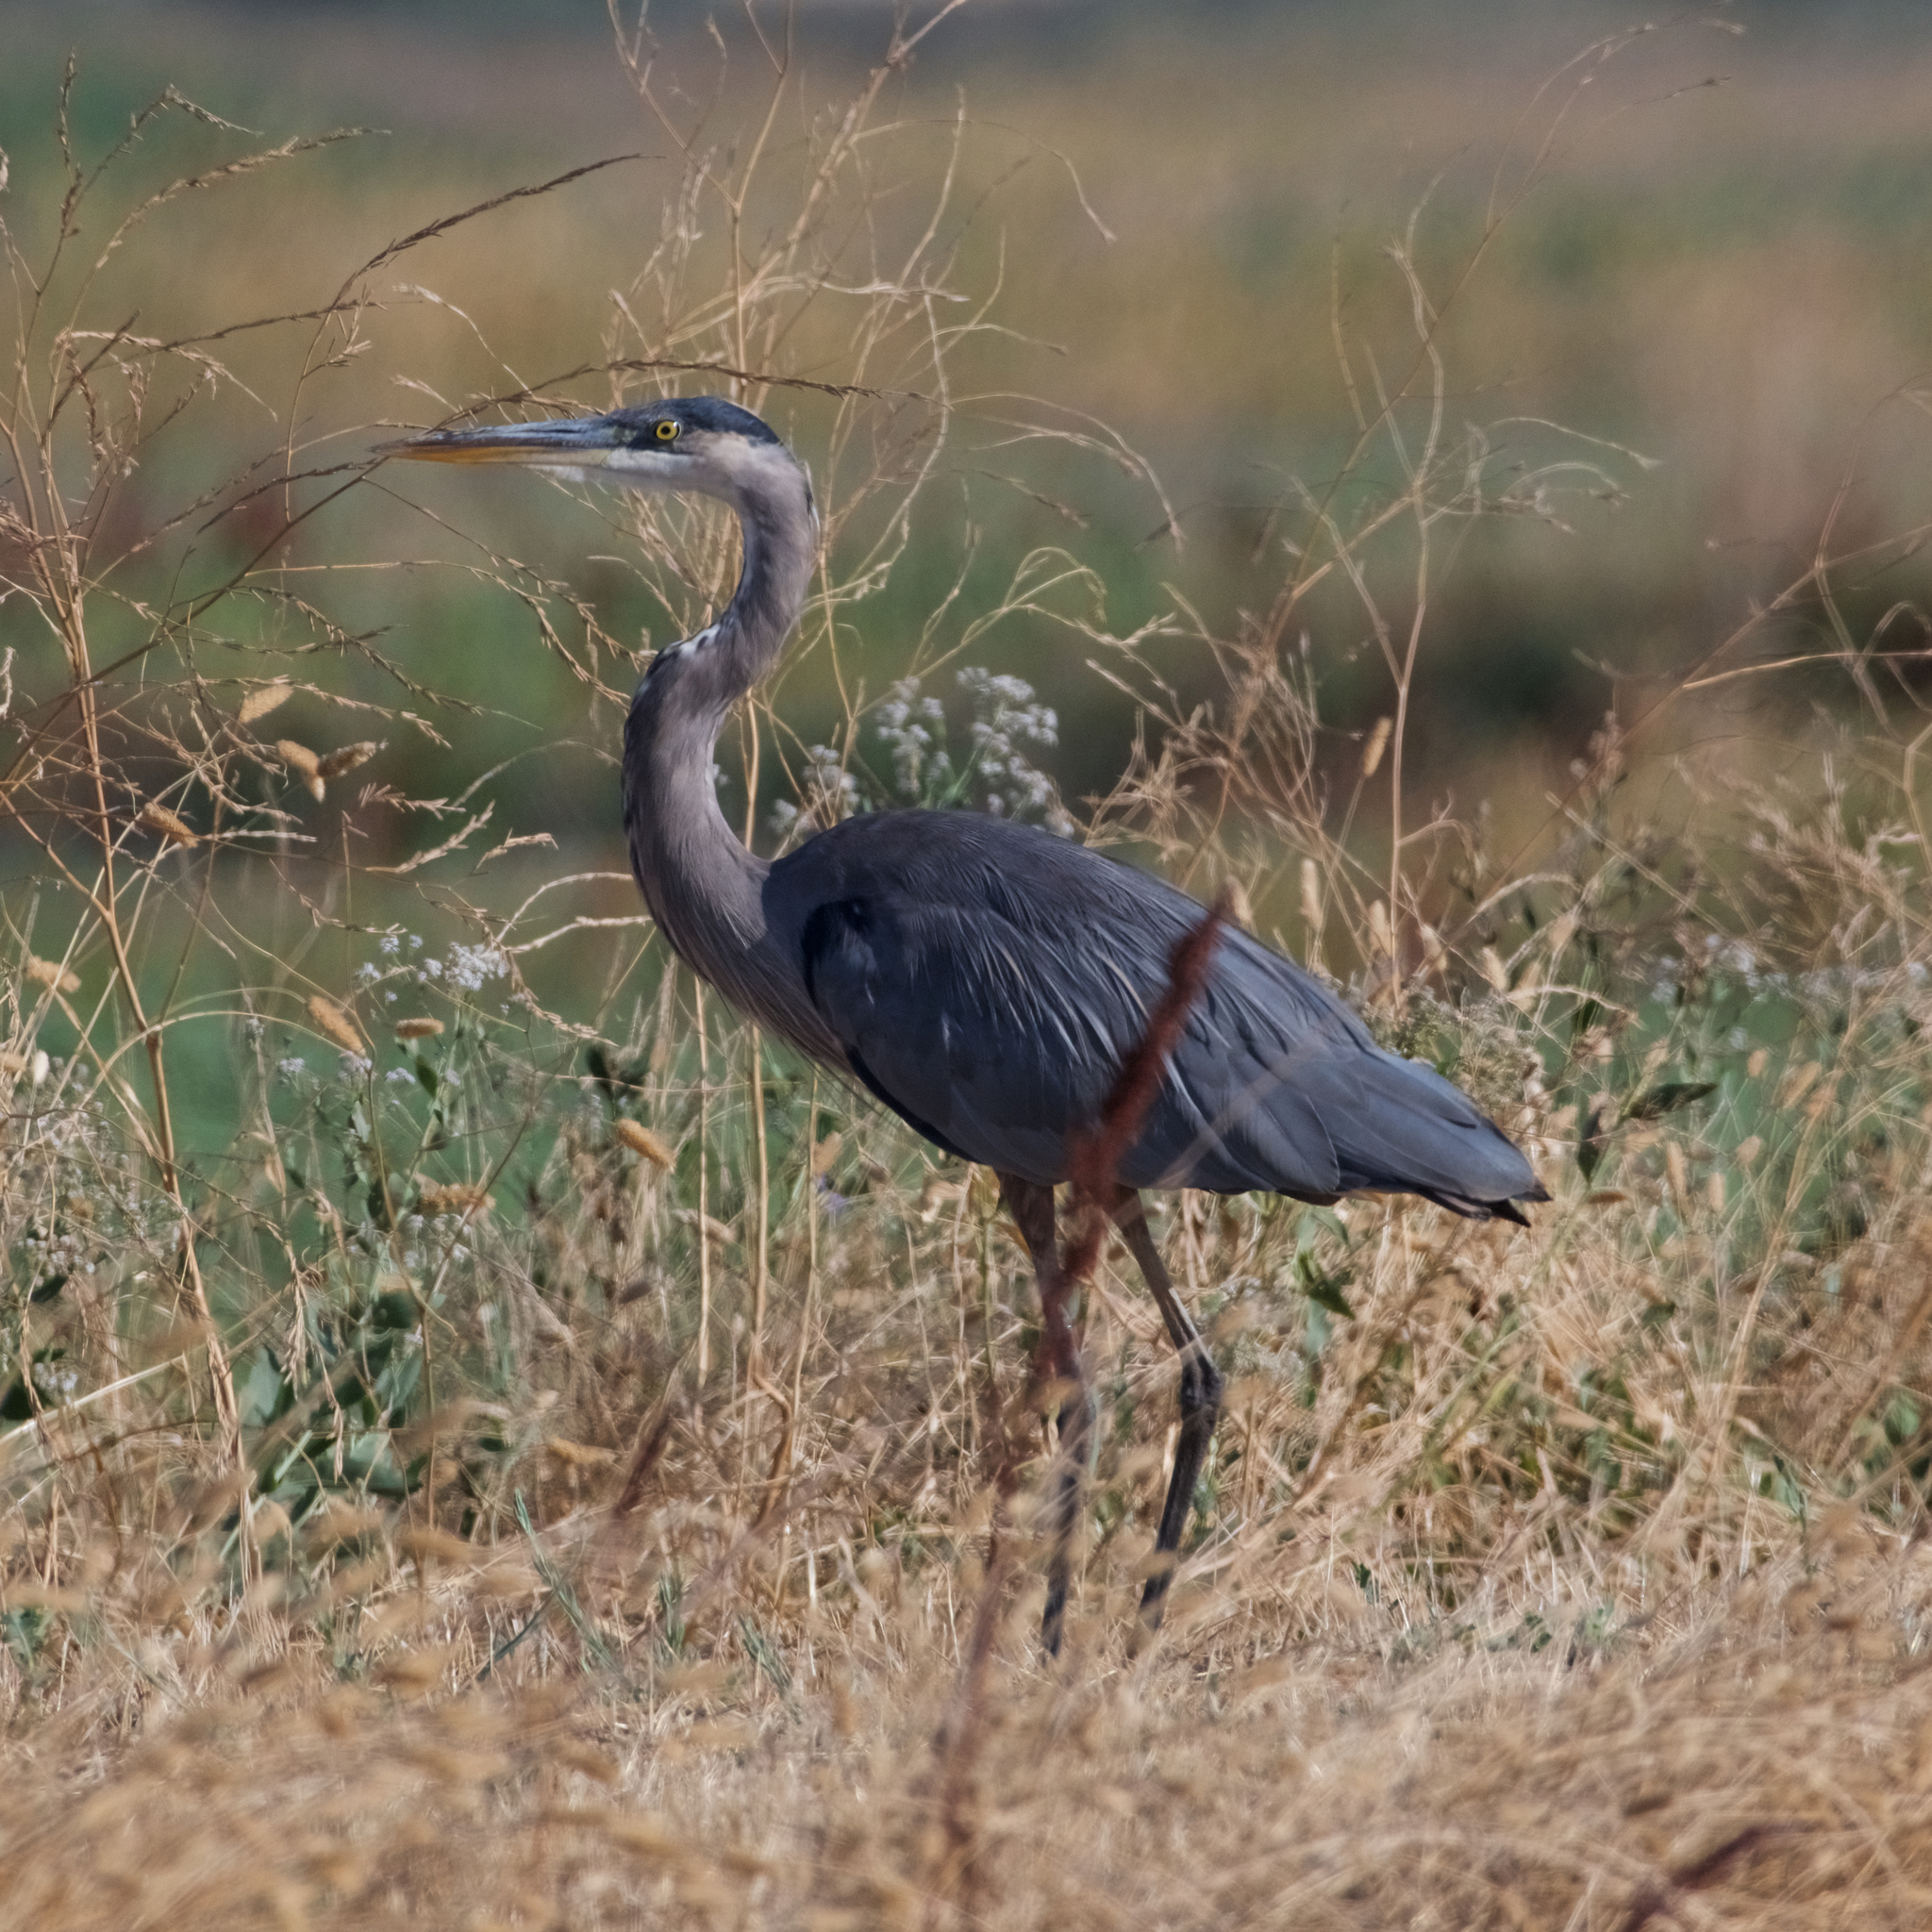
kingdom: Animalia
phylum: Chordata
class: Aves
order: Pelecaniformes
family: Ardeidae
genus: Ardea
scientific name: Ardea herodias
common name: Great blue heron
